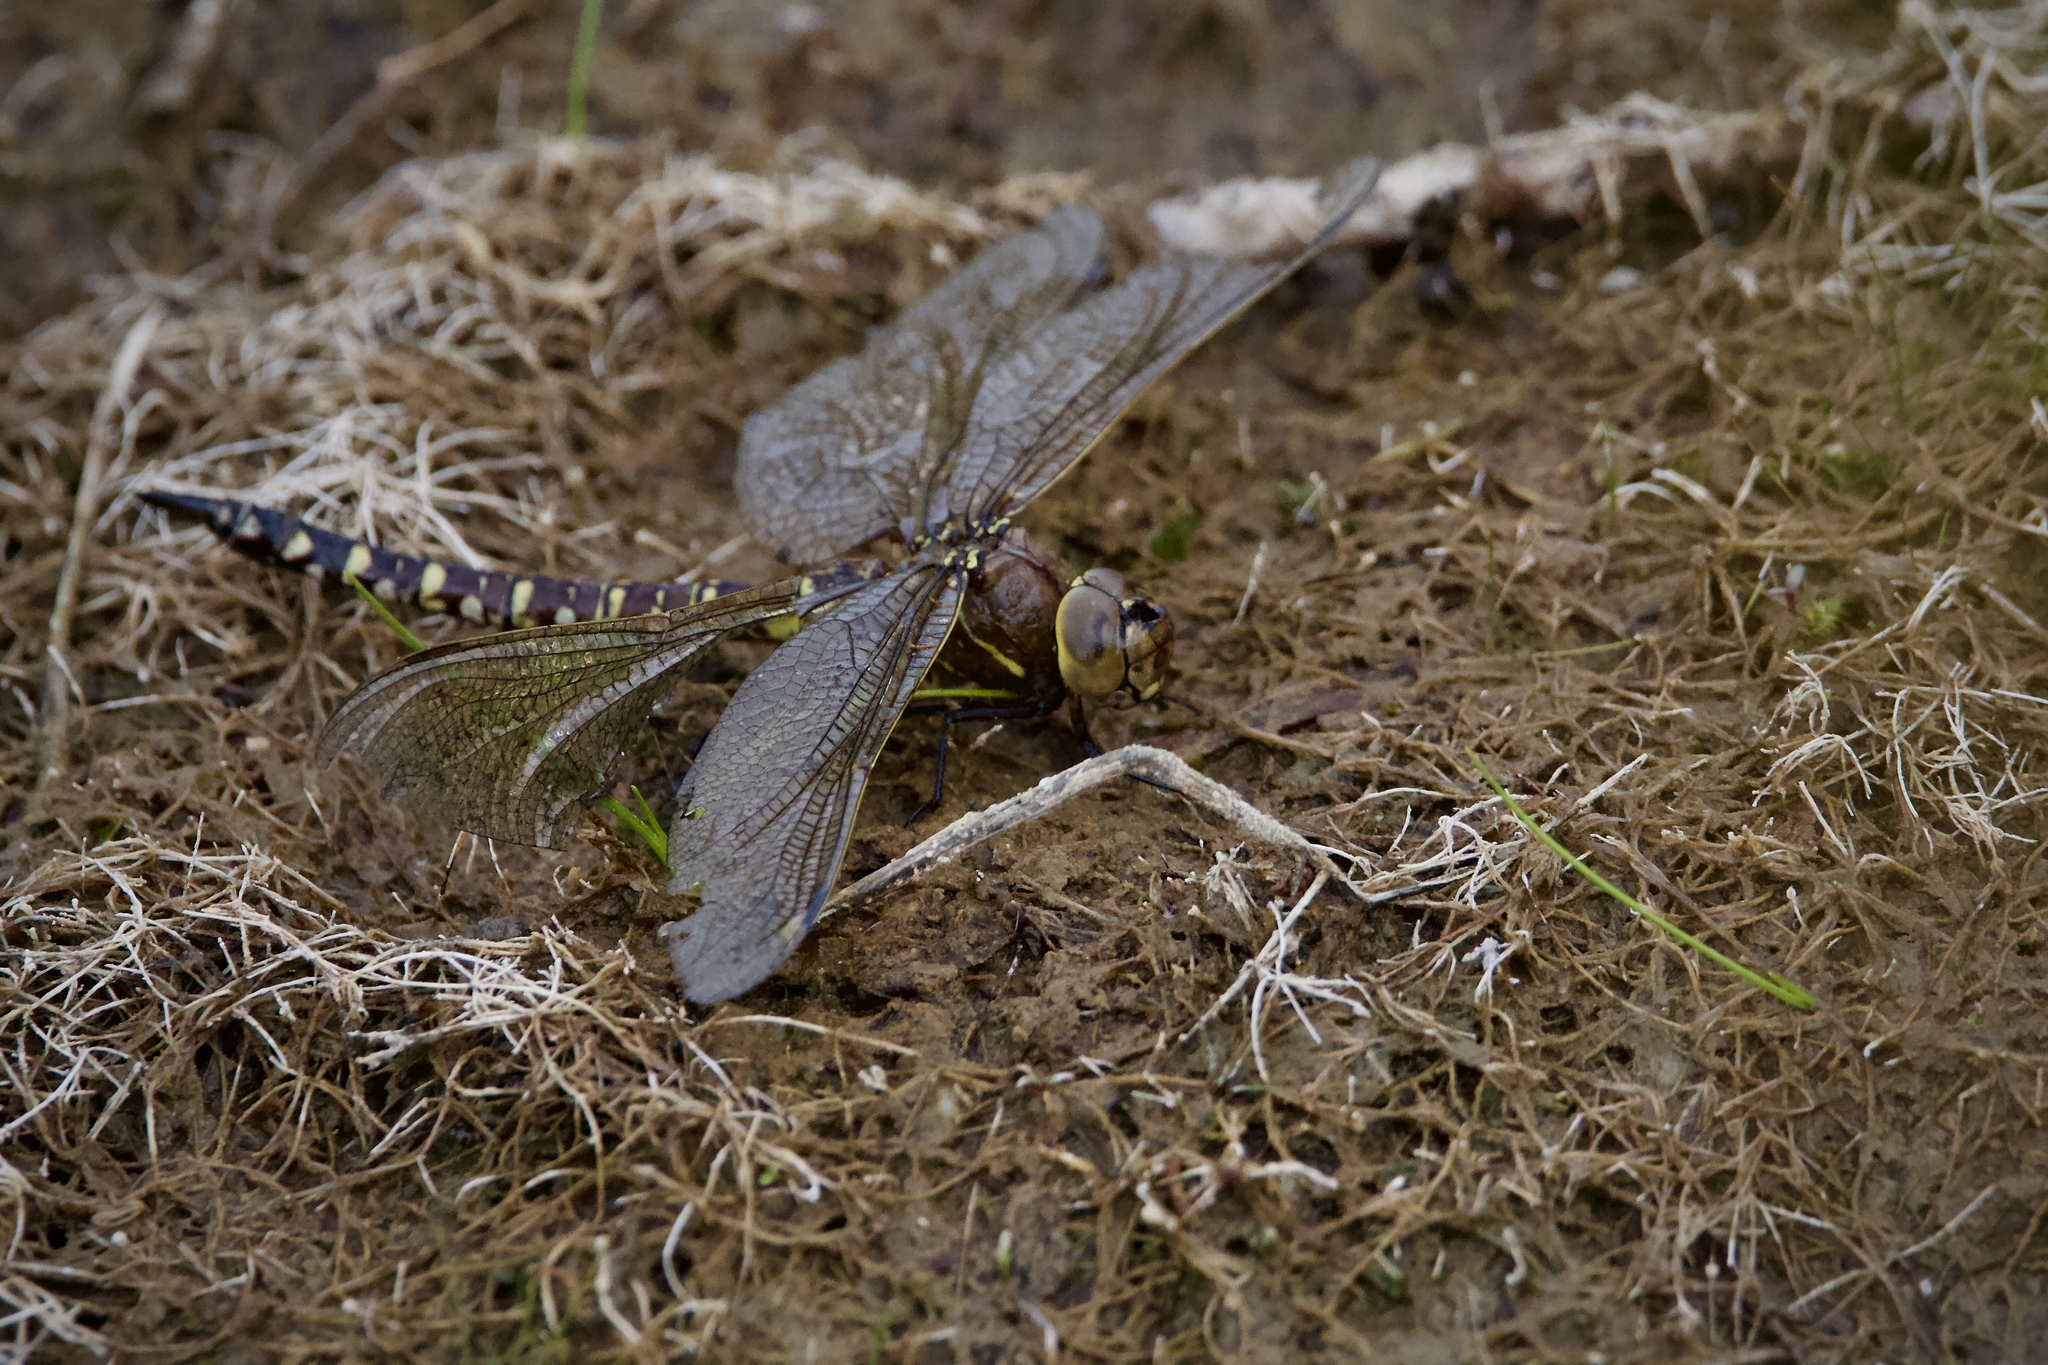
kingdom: Animalia
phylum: Arthropoda
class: Insecta
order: Odonata
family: Aeshnidae
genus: Aeshna
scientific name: Aeshna interrupta
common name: Variable darner
